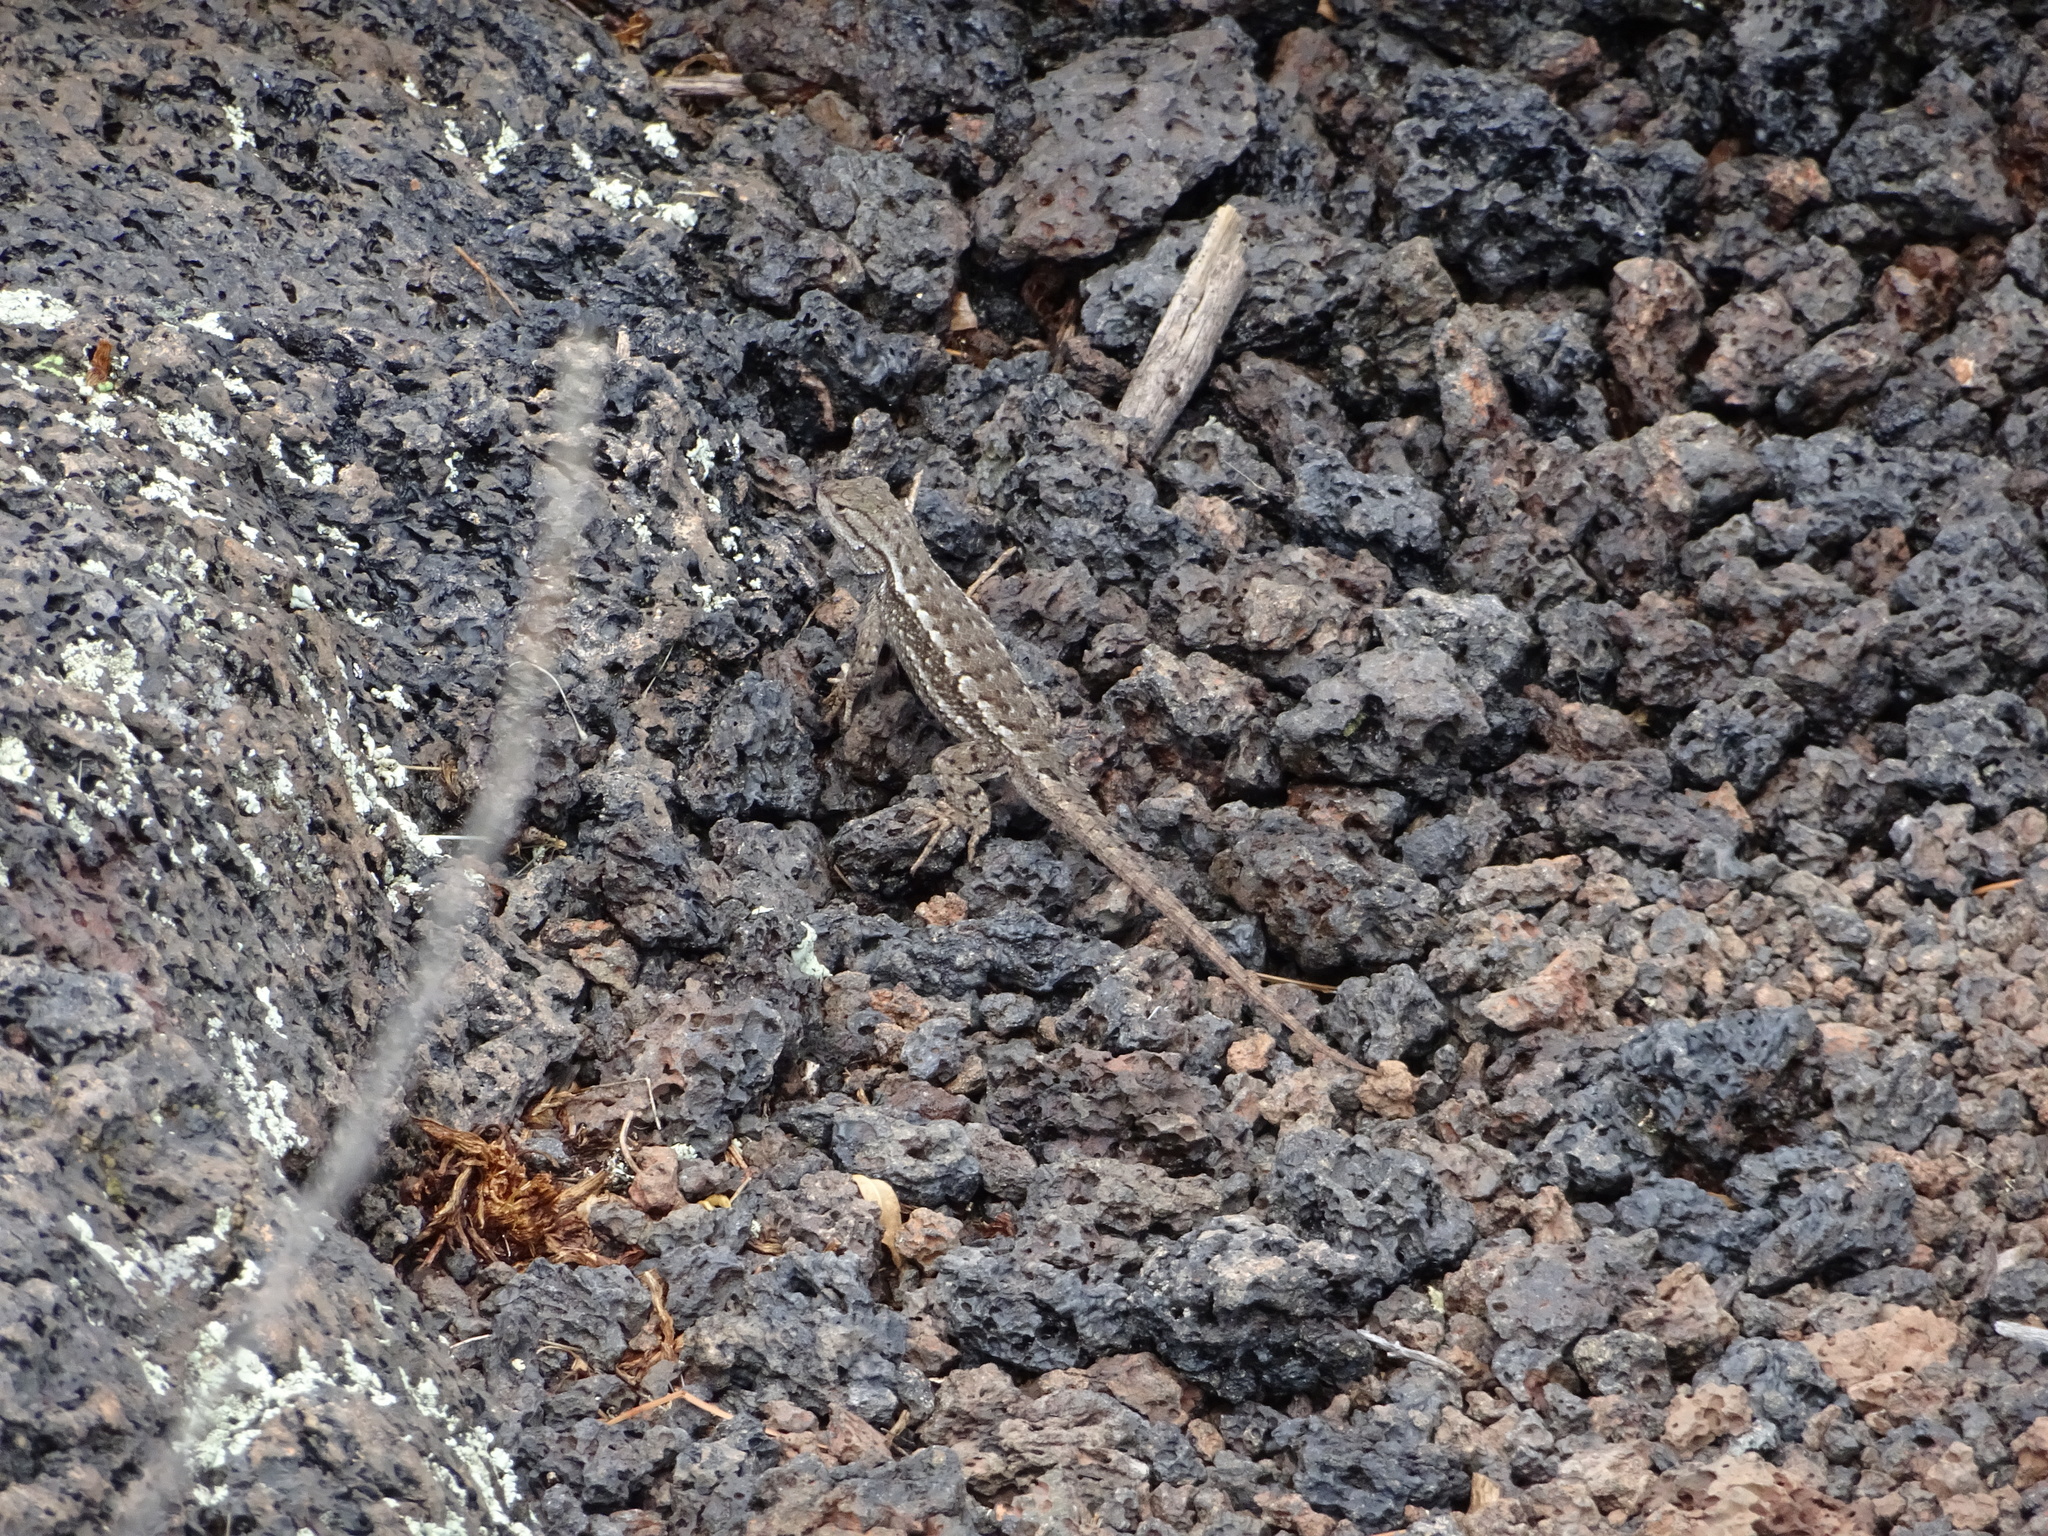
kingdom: Animalia
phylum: Chordata
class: Squamata
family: Phrynosomatidae
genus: Sceloporus
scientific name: Sceloporus cowlesi
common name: White sands prairie lizard
